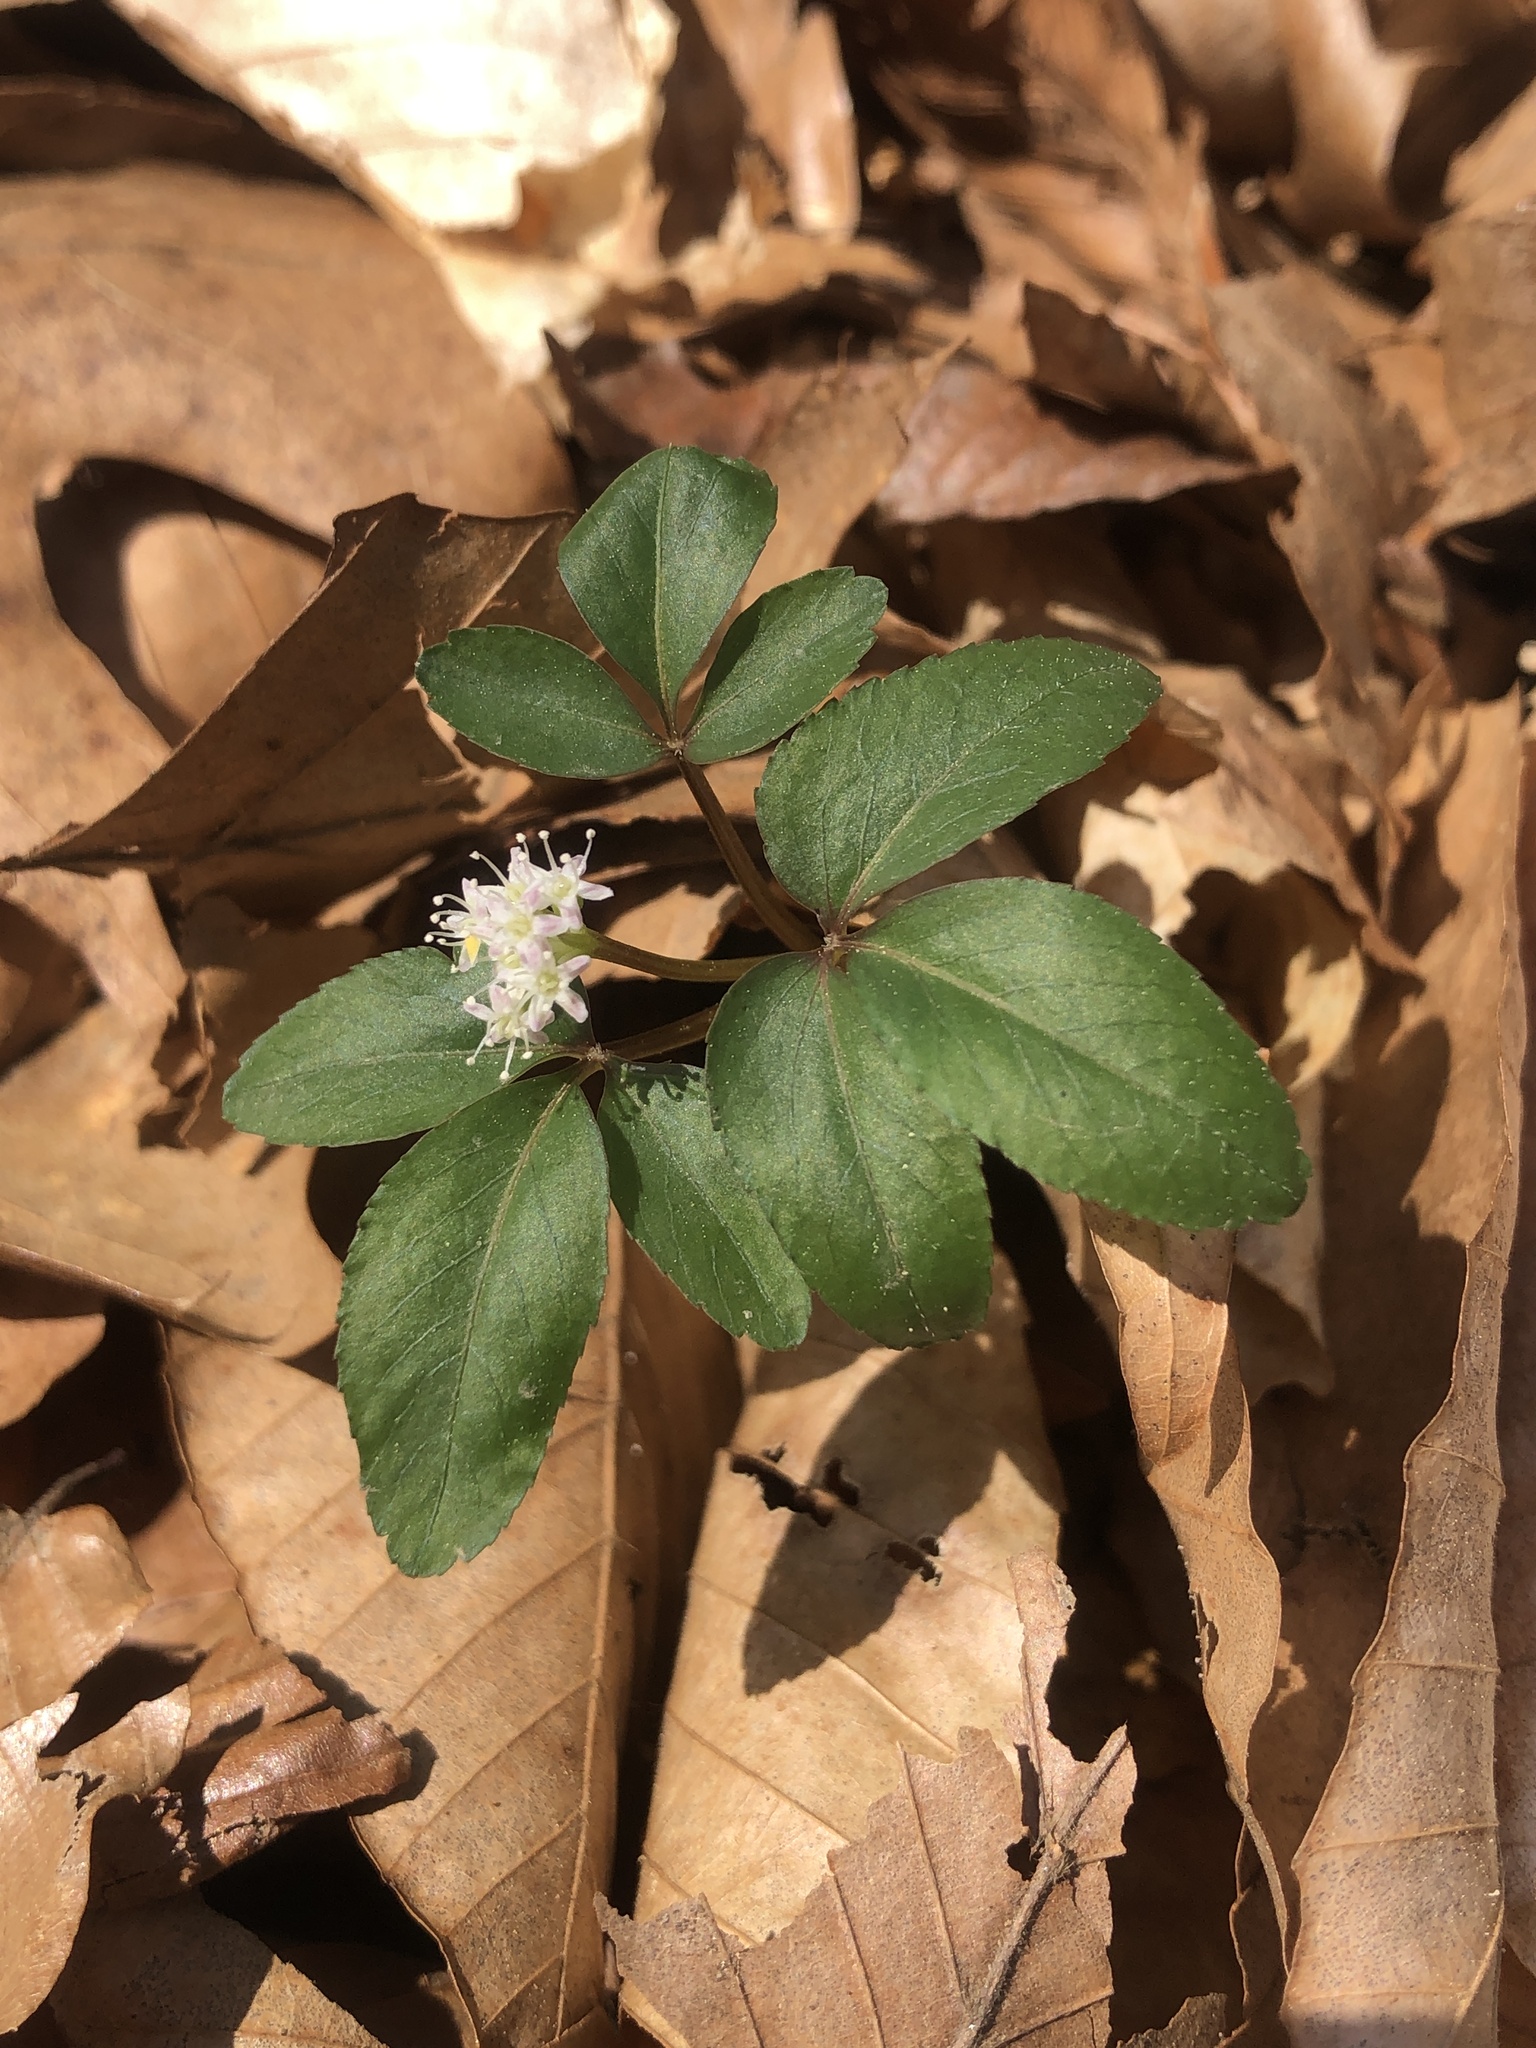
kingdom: Plantae
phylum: Tracheophyta
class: Magnoliopsida
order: Apiales
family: Araliaceae
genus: Panax
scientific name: Panax trifolius
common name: Dwarf ginseng
